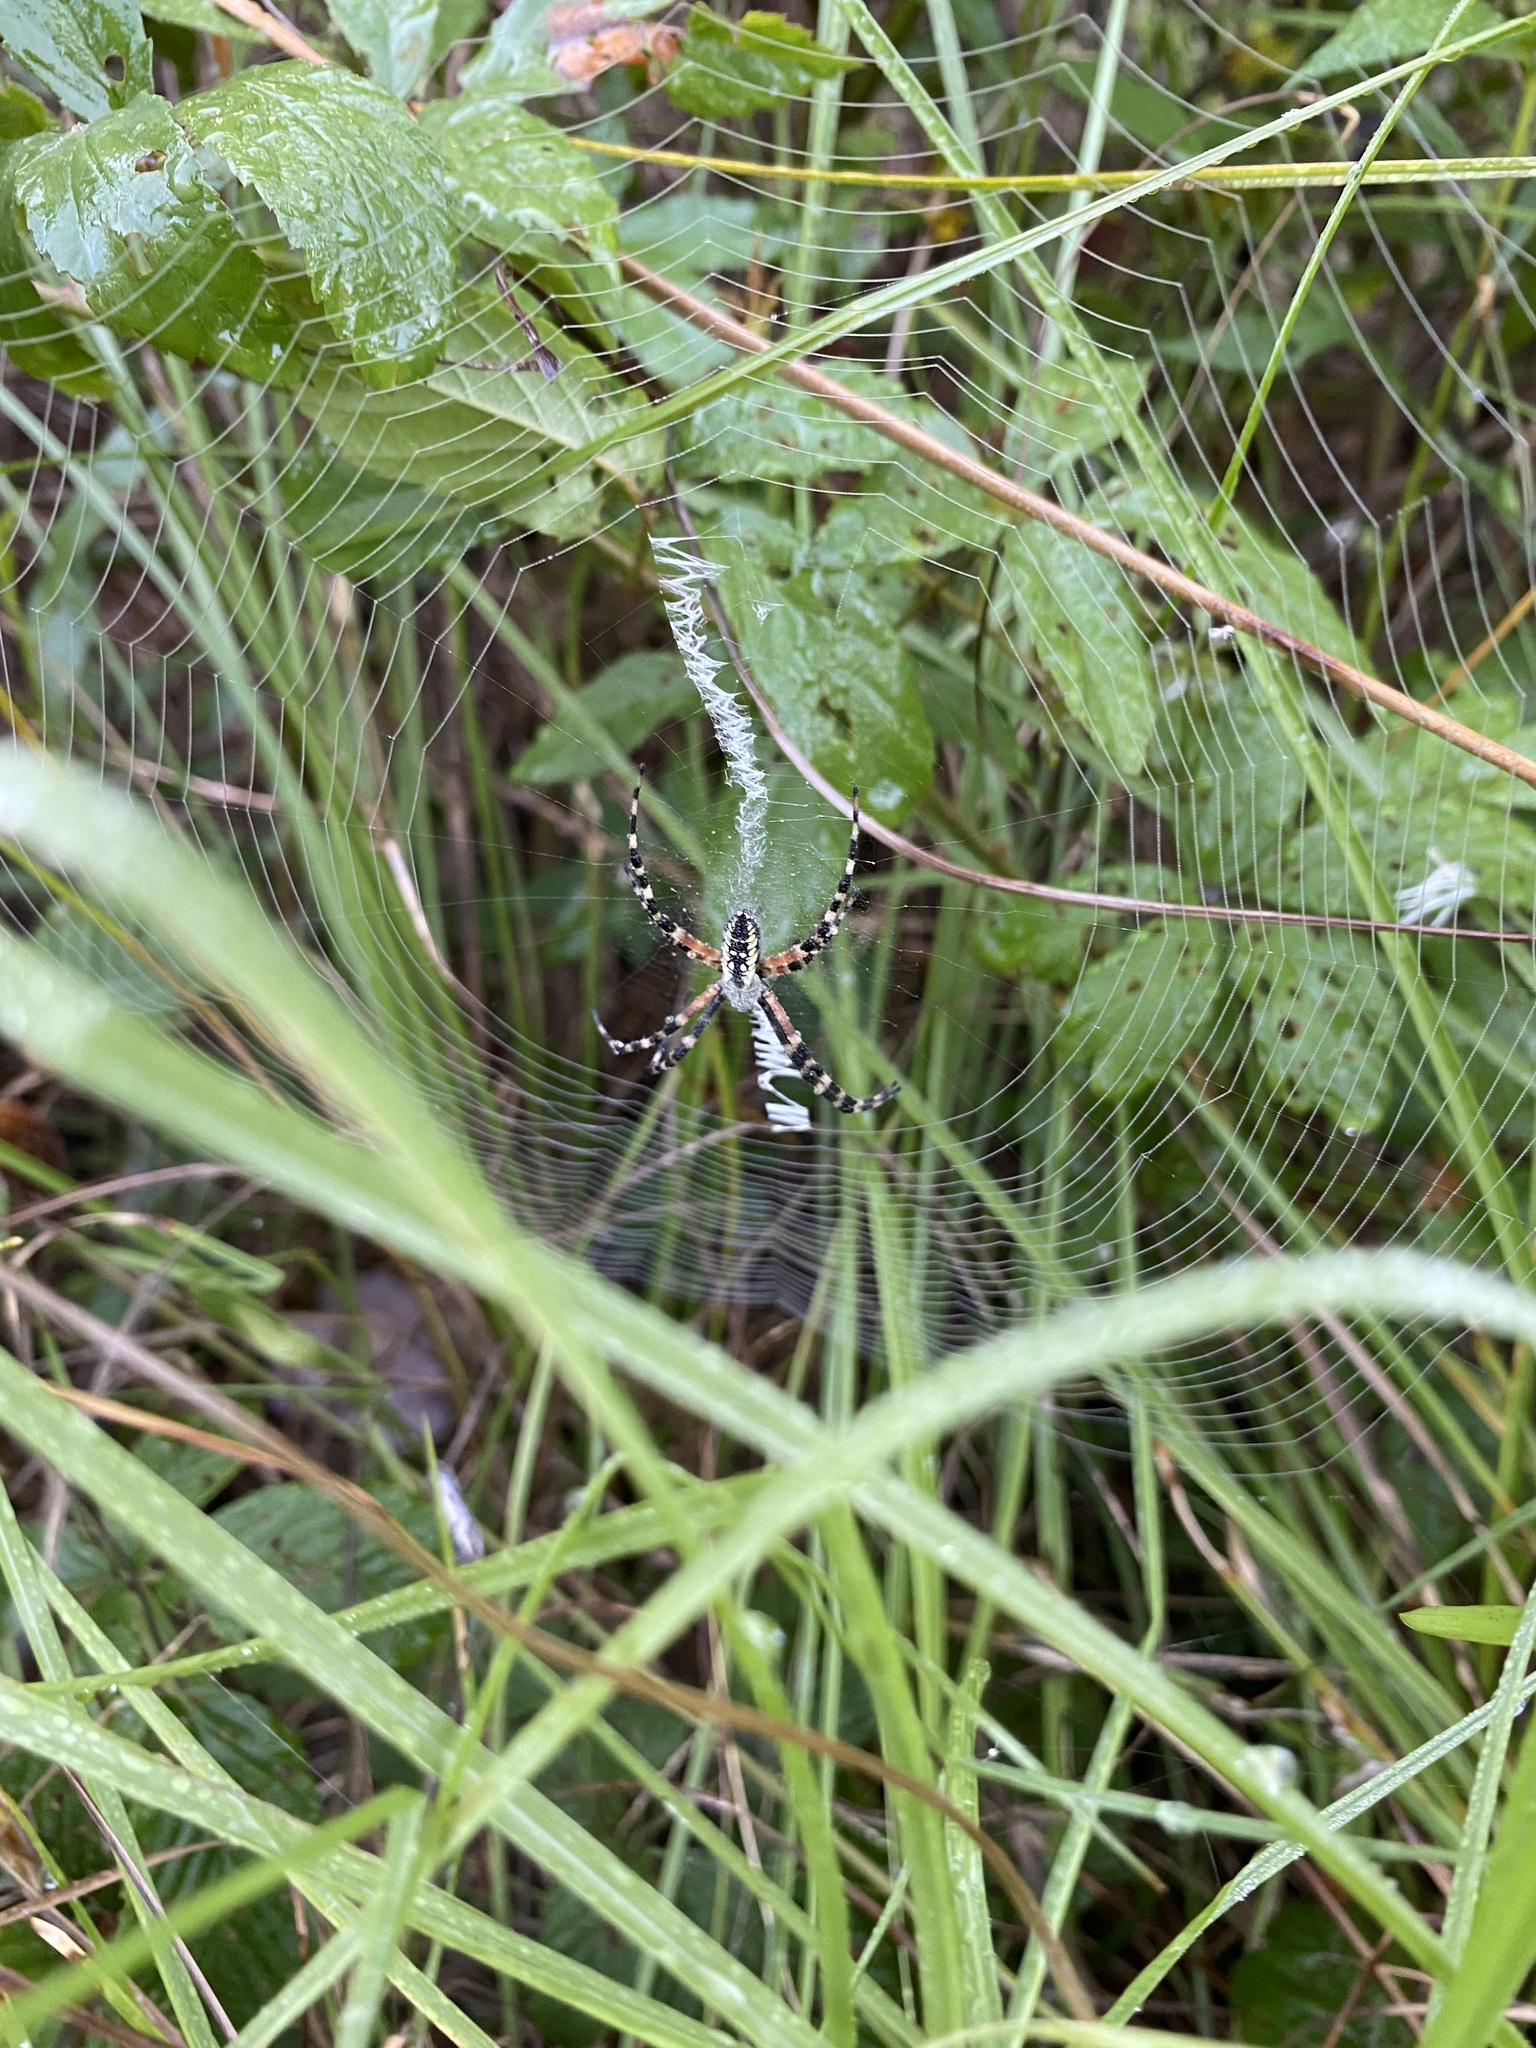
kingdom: Animalia
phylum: Arthropoda
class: Arachnida
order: Araneae
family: Araneidae
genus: Argiope
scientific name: Argiope aurantia
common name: Orb weavers
